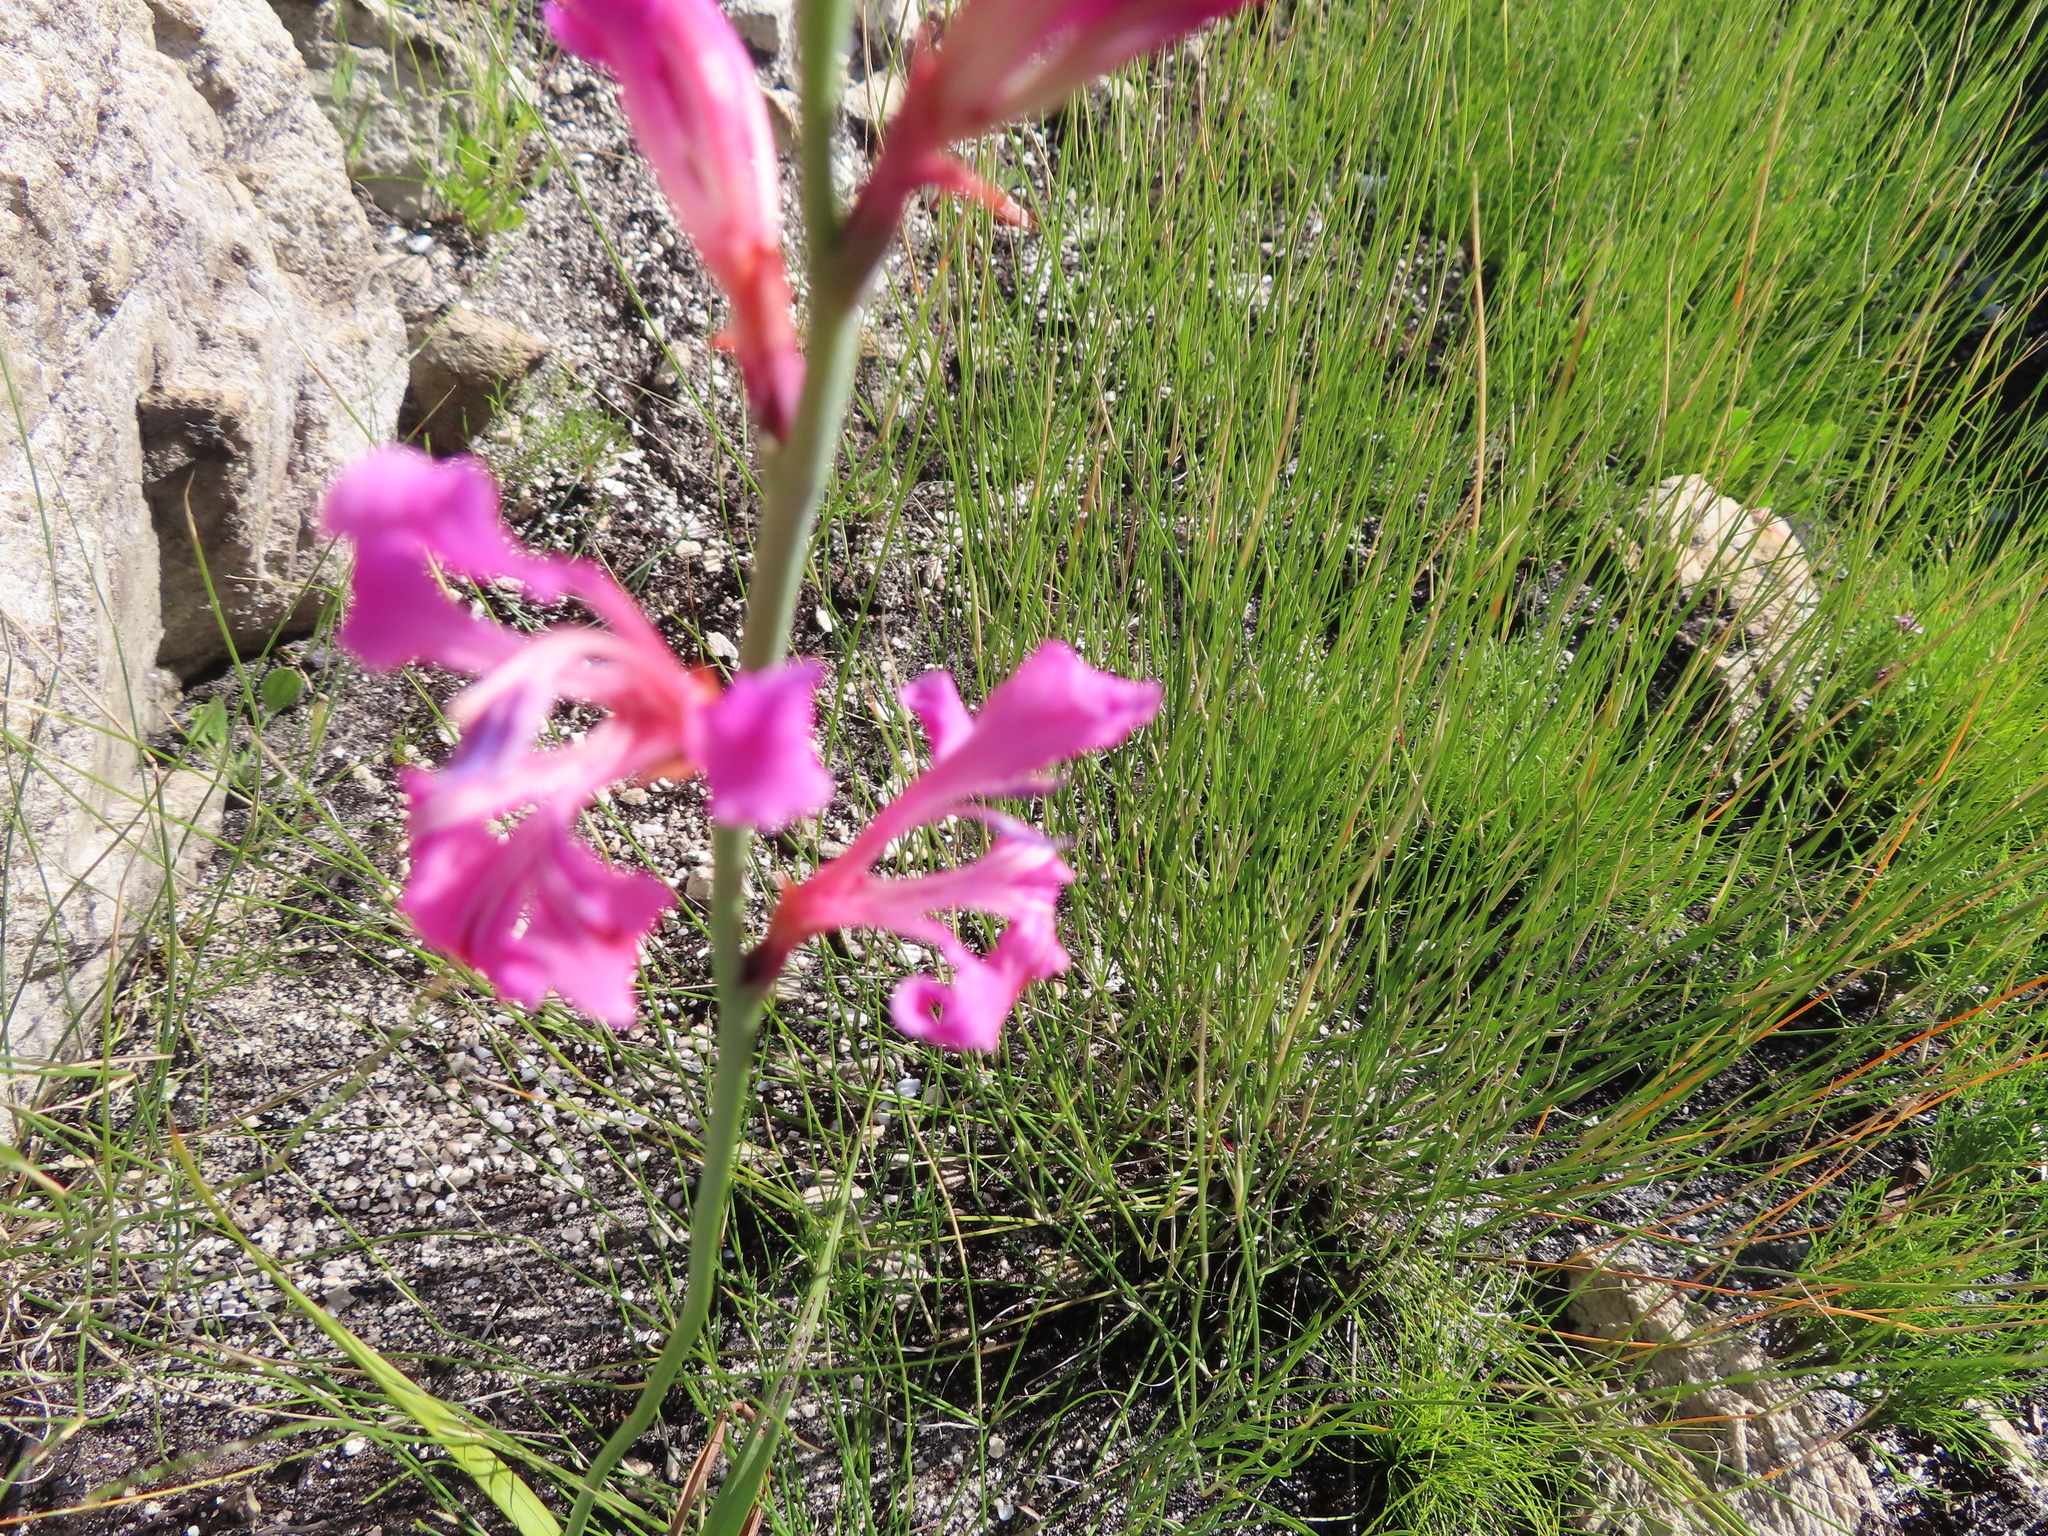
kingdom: Plantae
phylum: Tracheophyta
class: Liliopsida
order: Asparagales
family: Iridaceae
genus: Tritoniopsis
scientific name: Tritoniopsis lata
